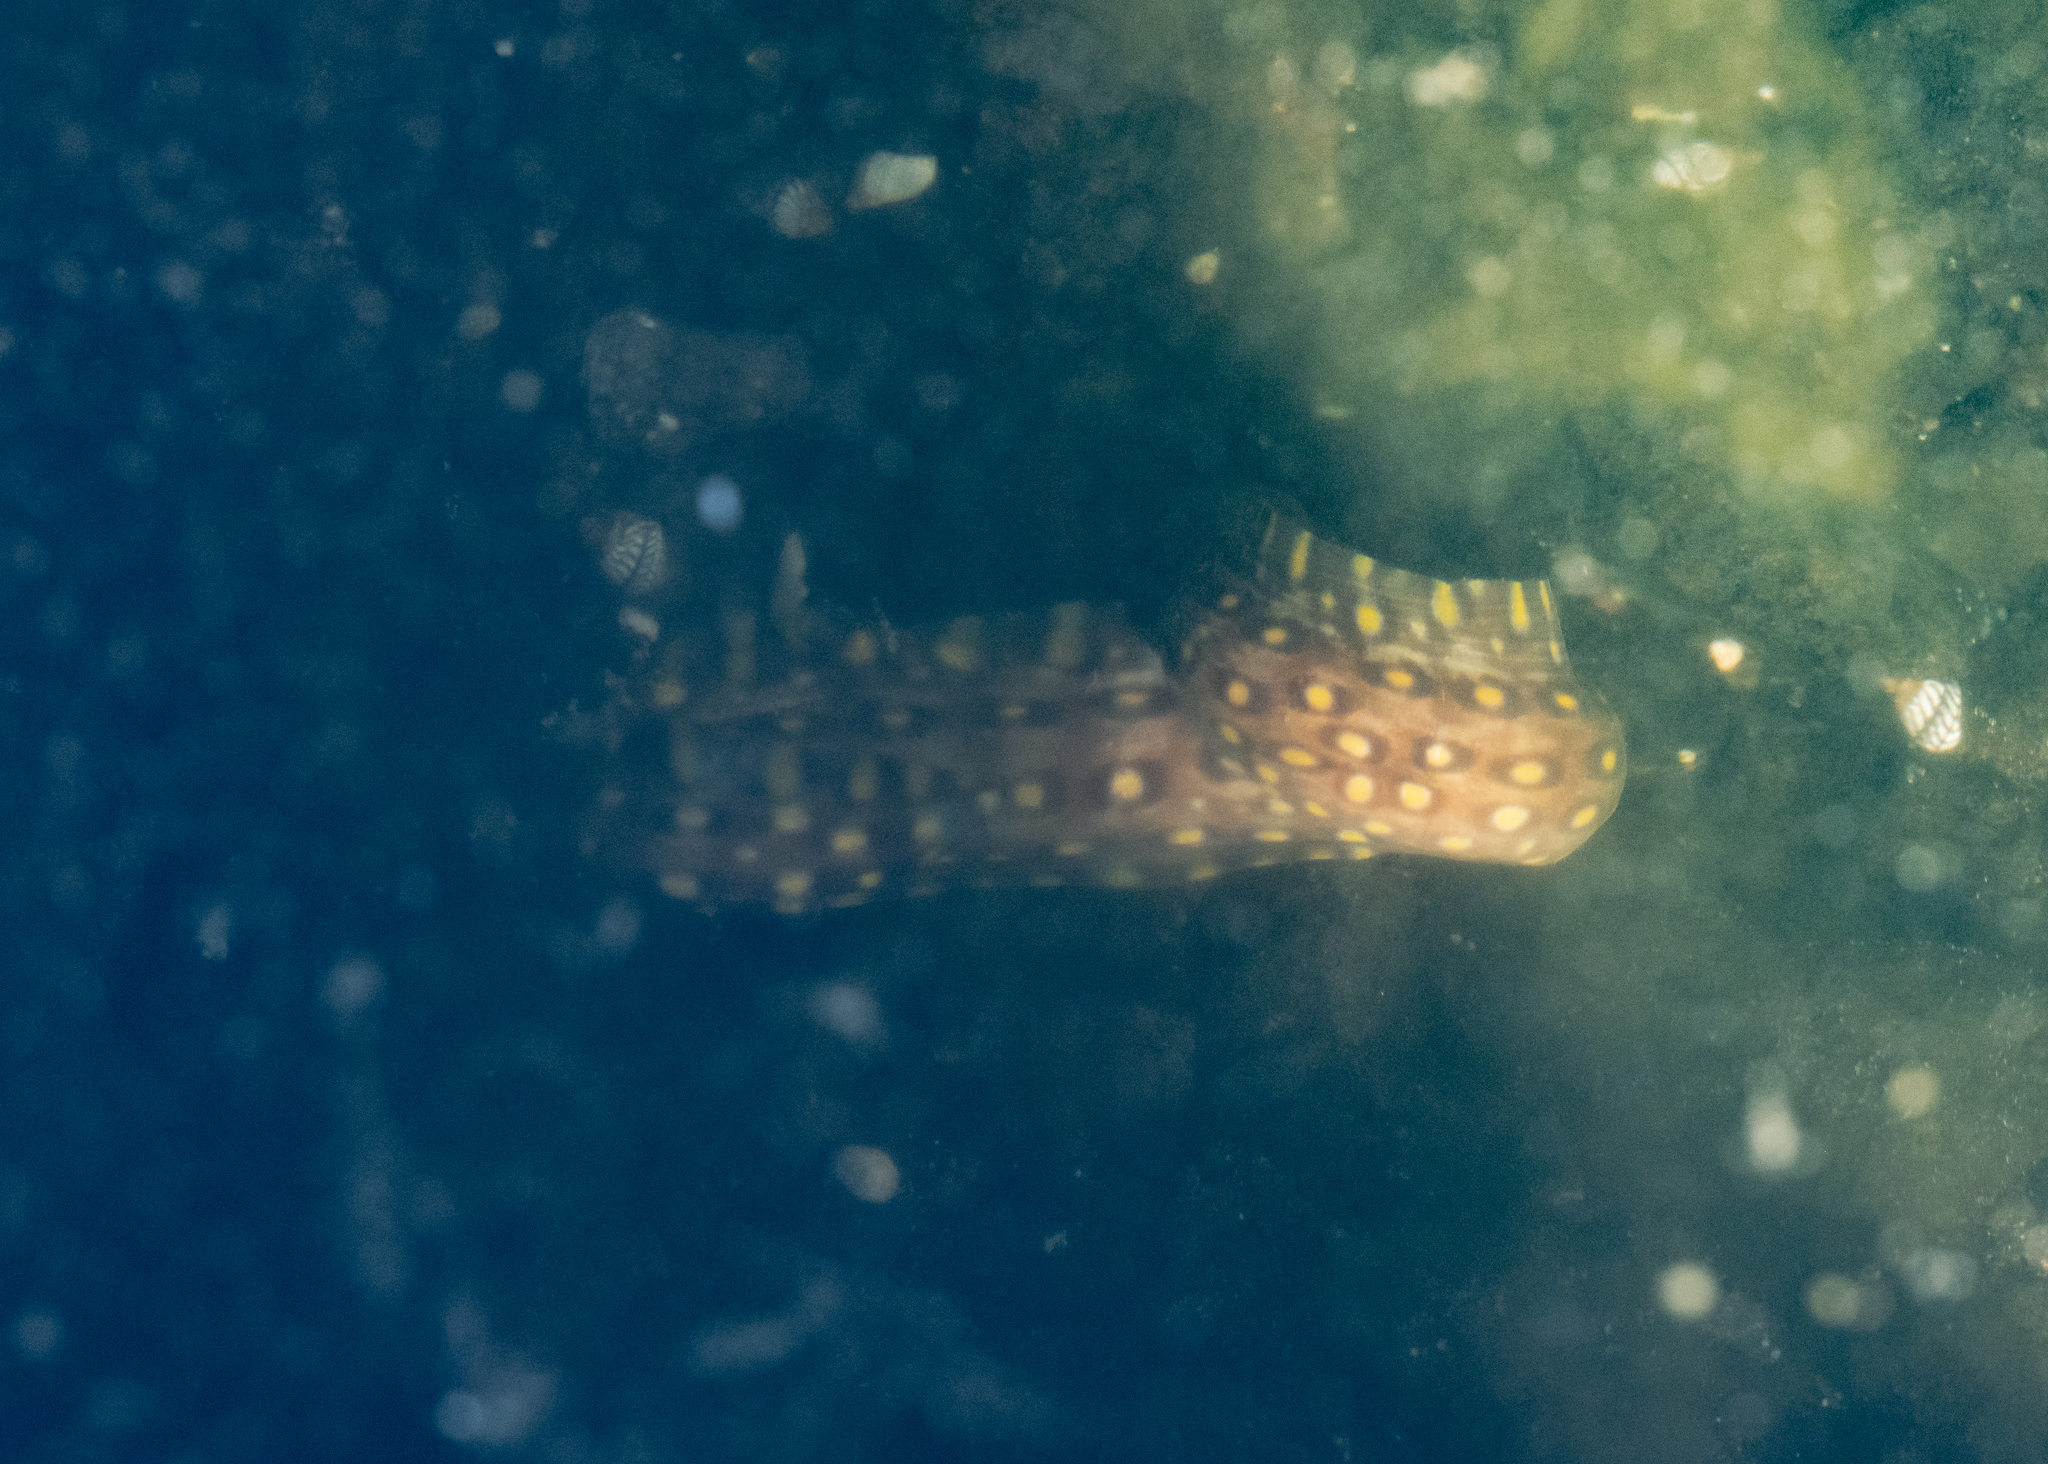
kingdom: Animalia
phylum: Chordata
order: Anguilliformes
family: Muraenidae
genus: Muraena
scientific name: Muraena lentiginosa
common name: Jewel moray
